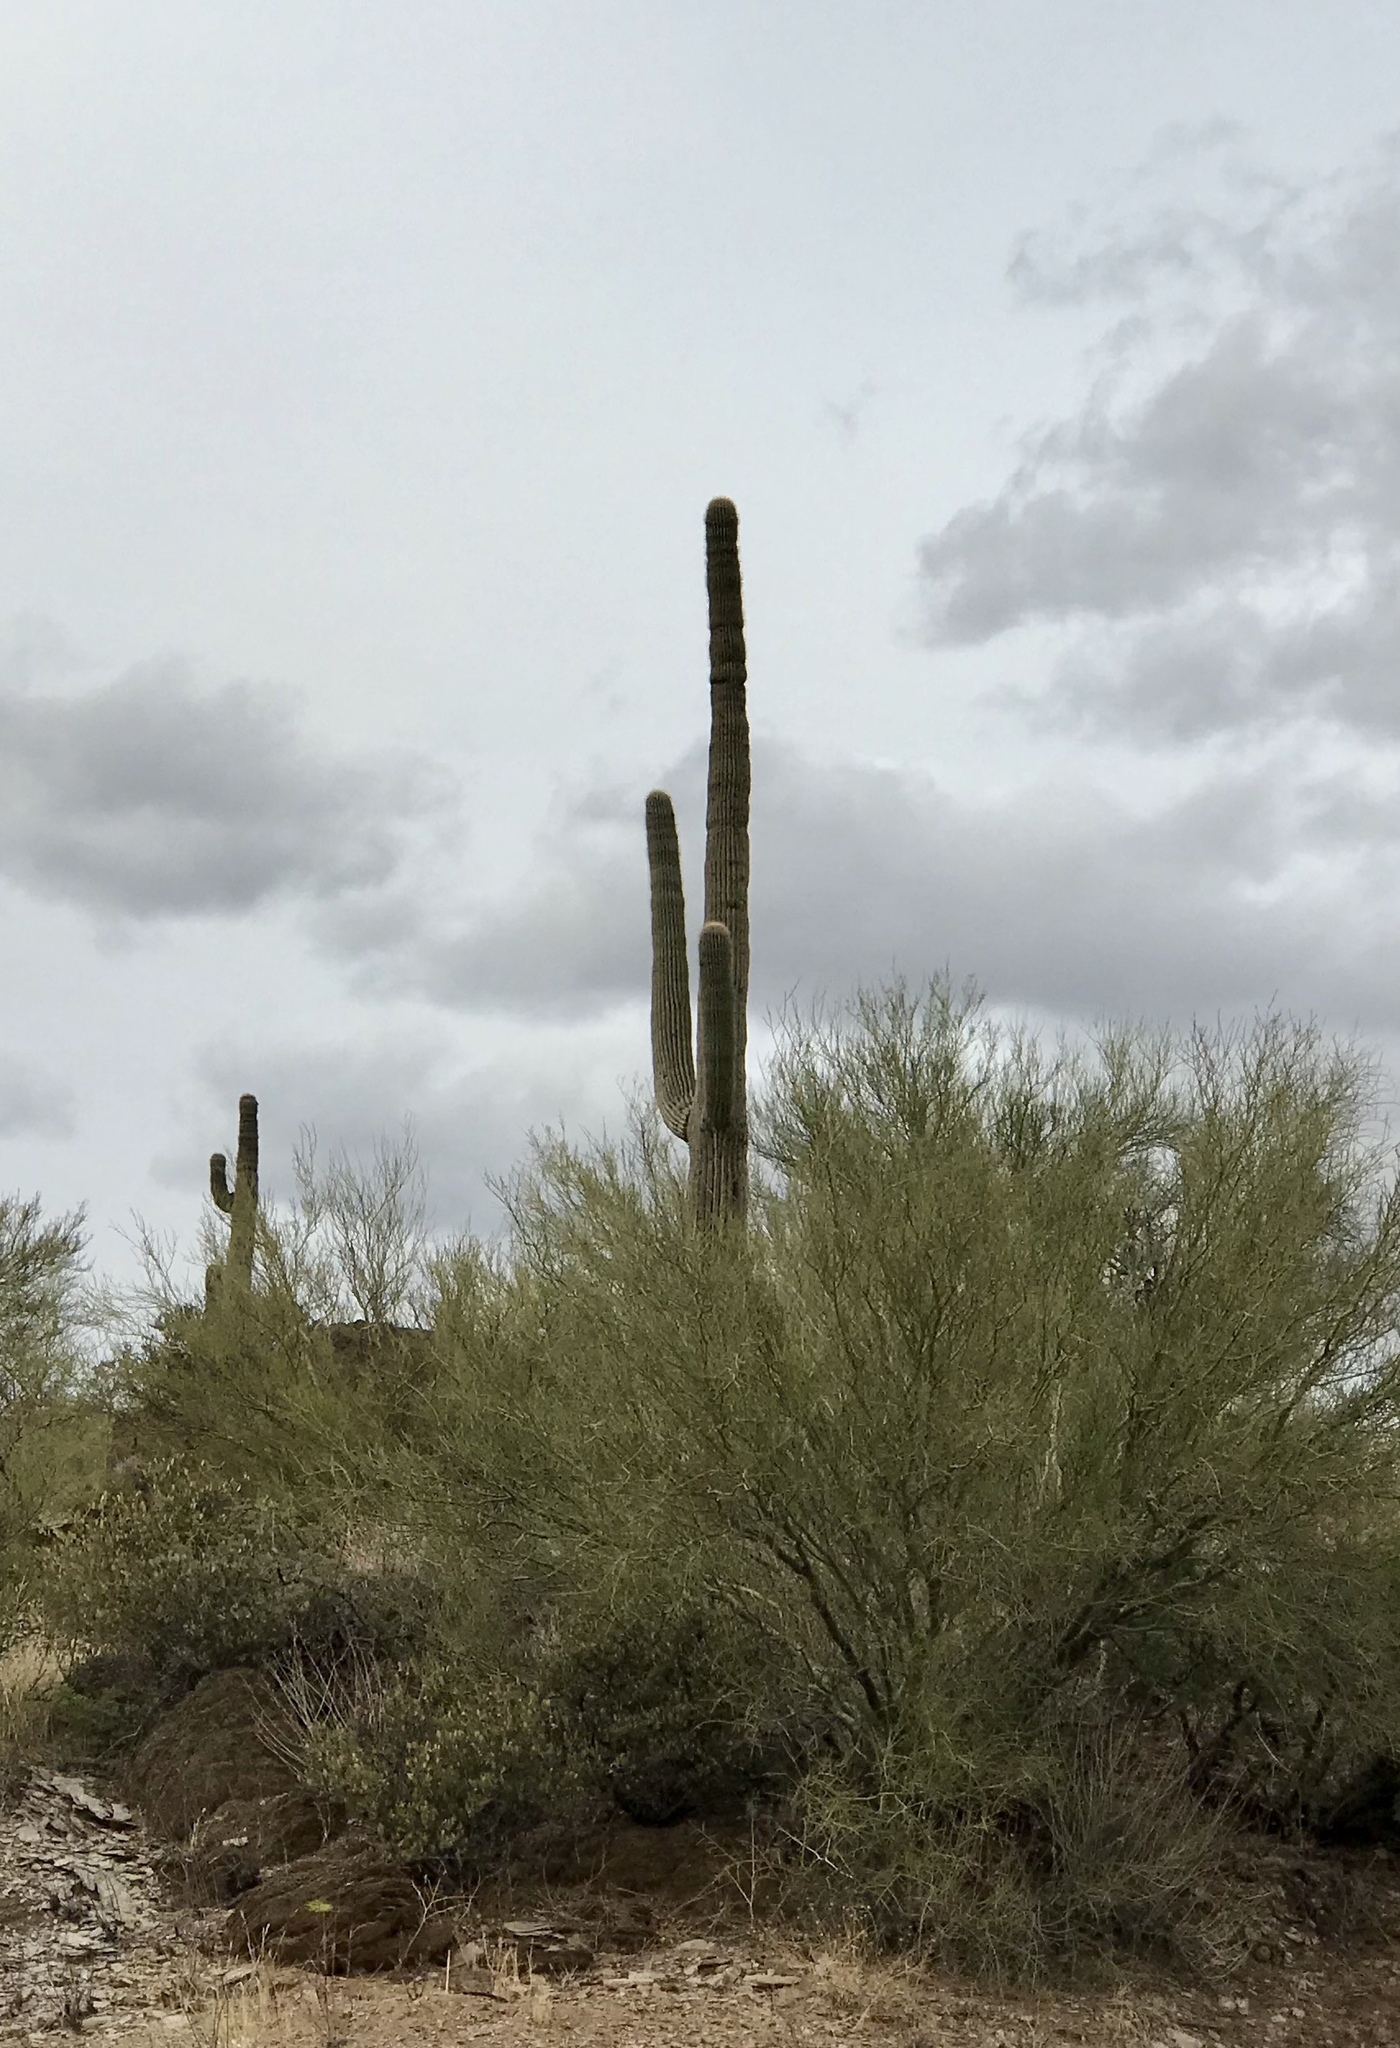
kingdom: Plantae
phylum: Tracheophyta
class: Magnoliopsida
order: Caryophyllales
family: Cactaceae
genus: Carnegiea
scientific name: Carnegiea gigantea
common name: Saguaro
